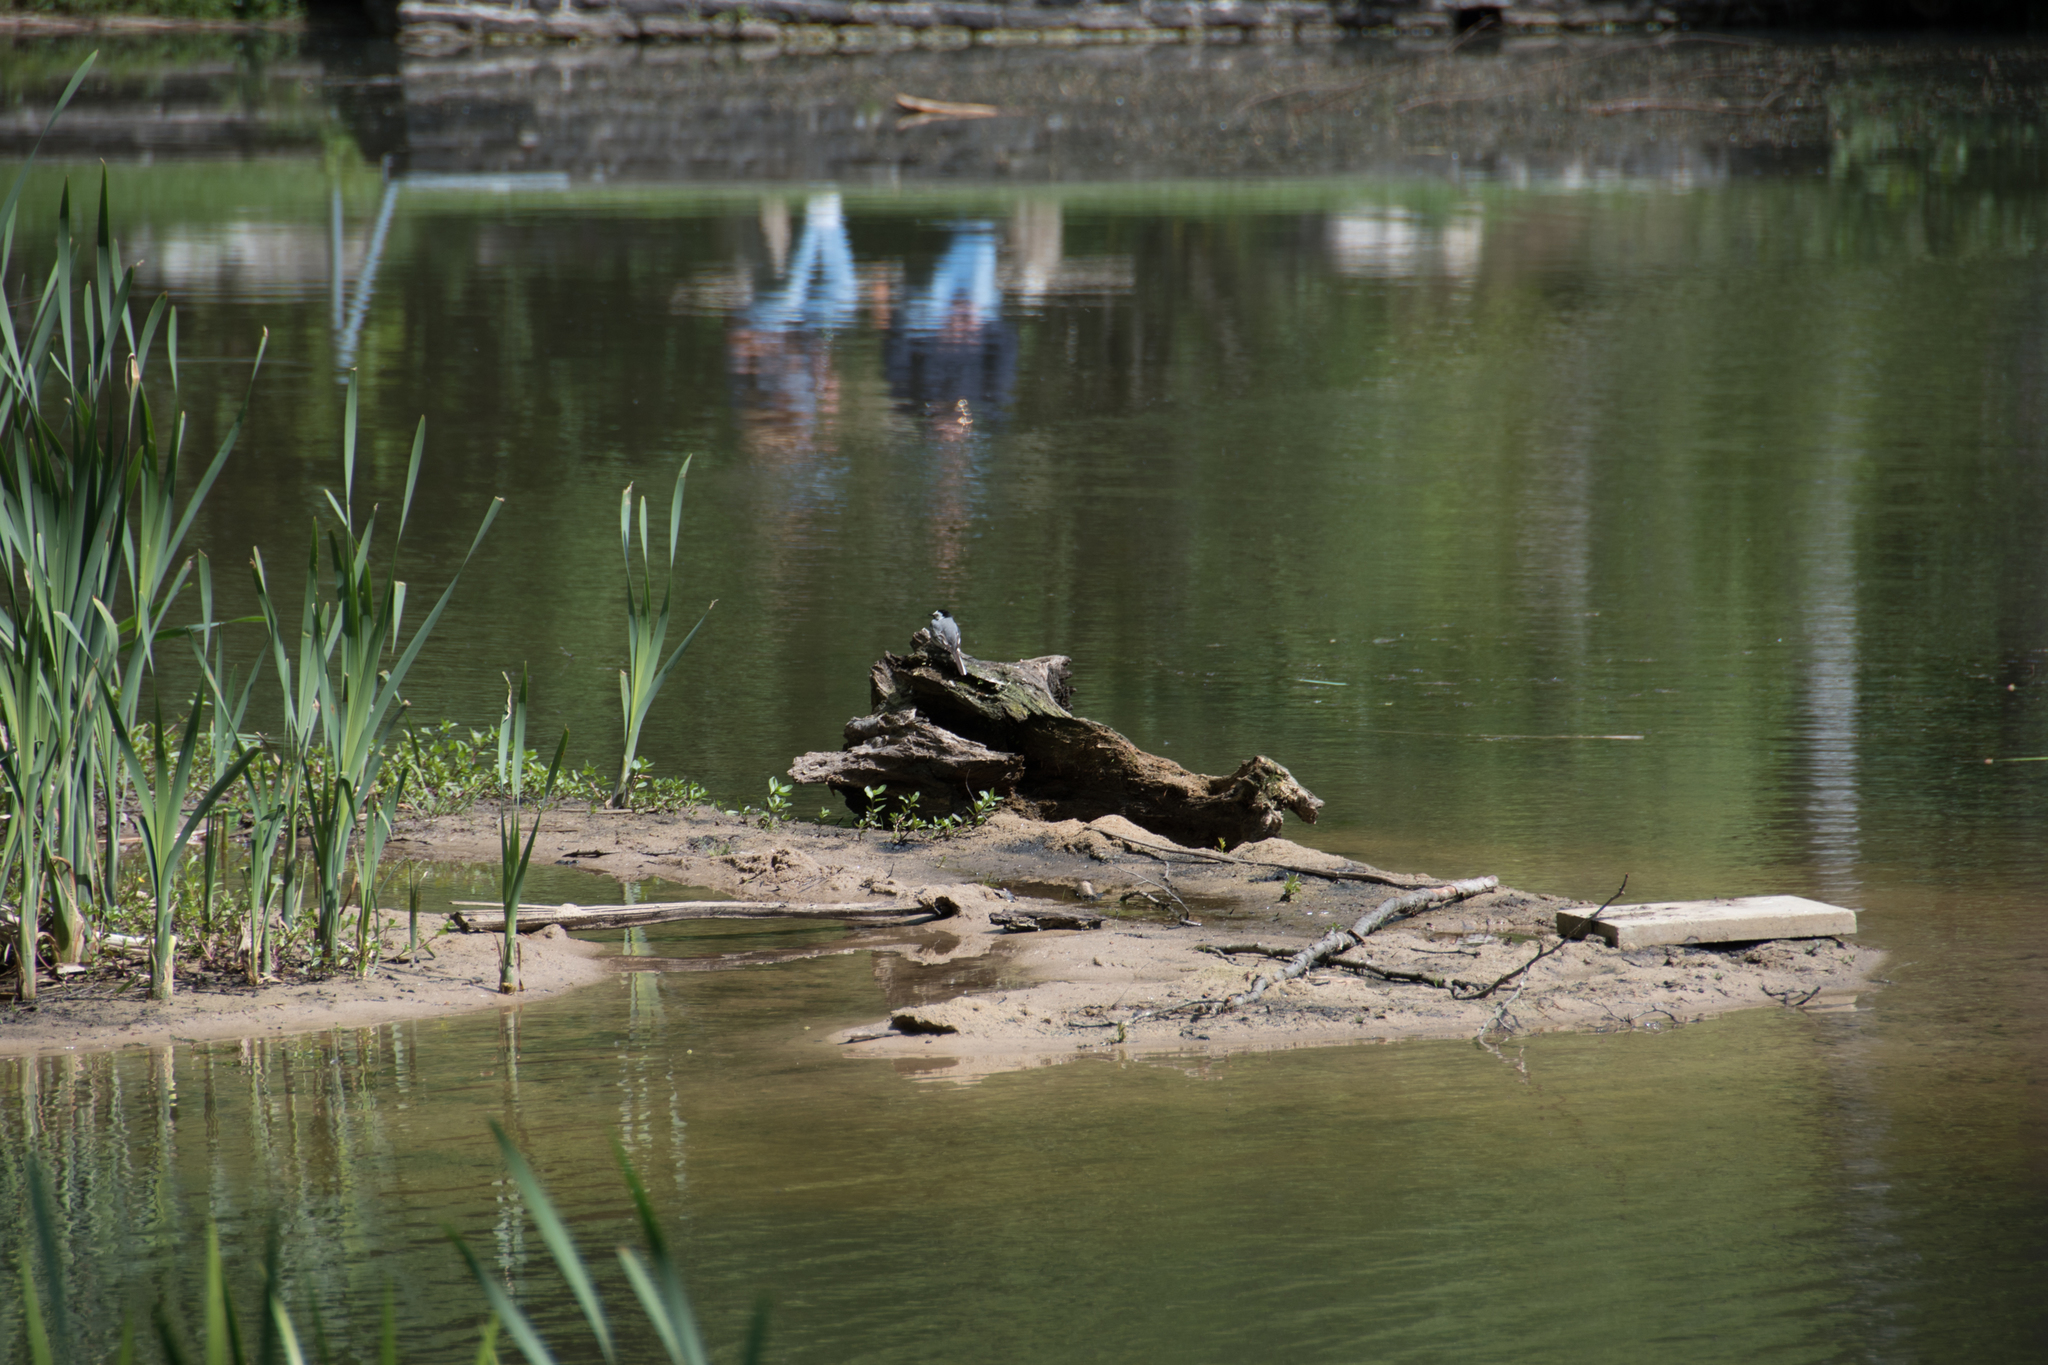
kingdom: Animalia
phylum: Chordata
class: Aves
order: Passeriformes
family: Motacillidae
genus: Motacilla
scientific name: Motacilla alba
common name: White wagtail
